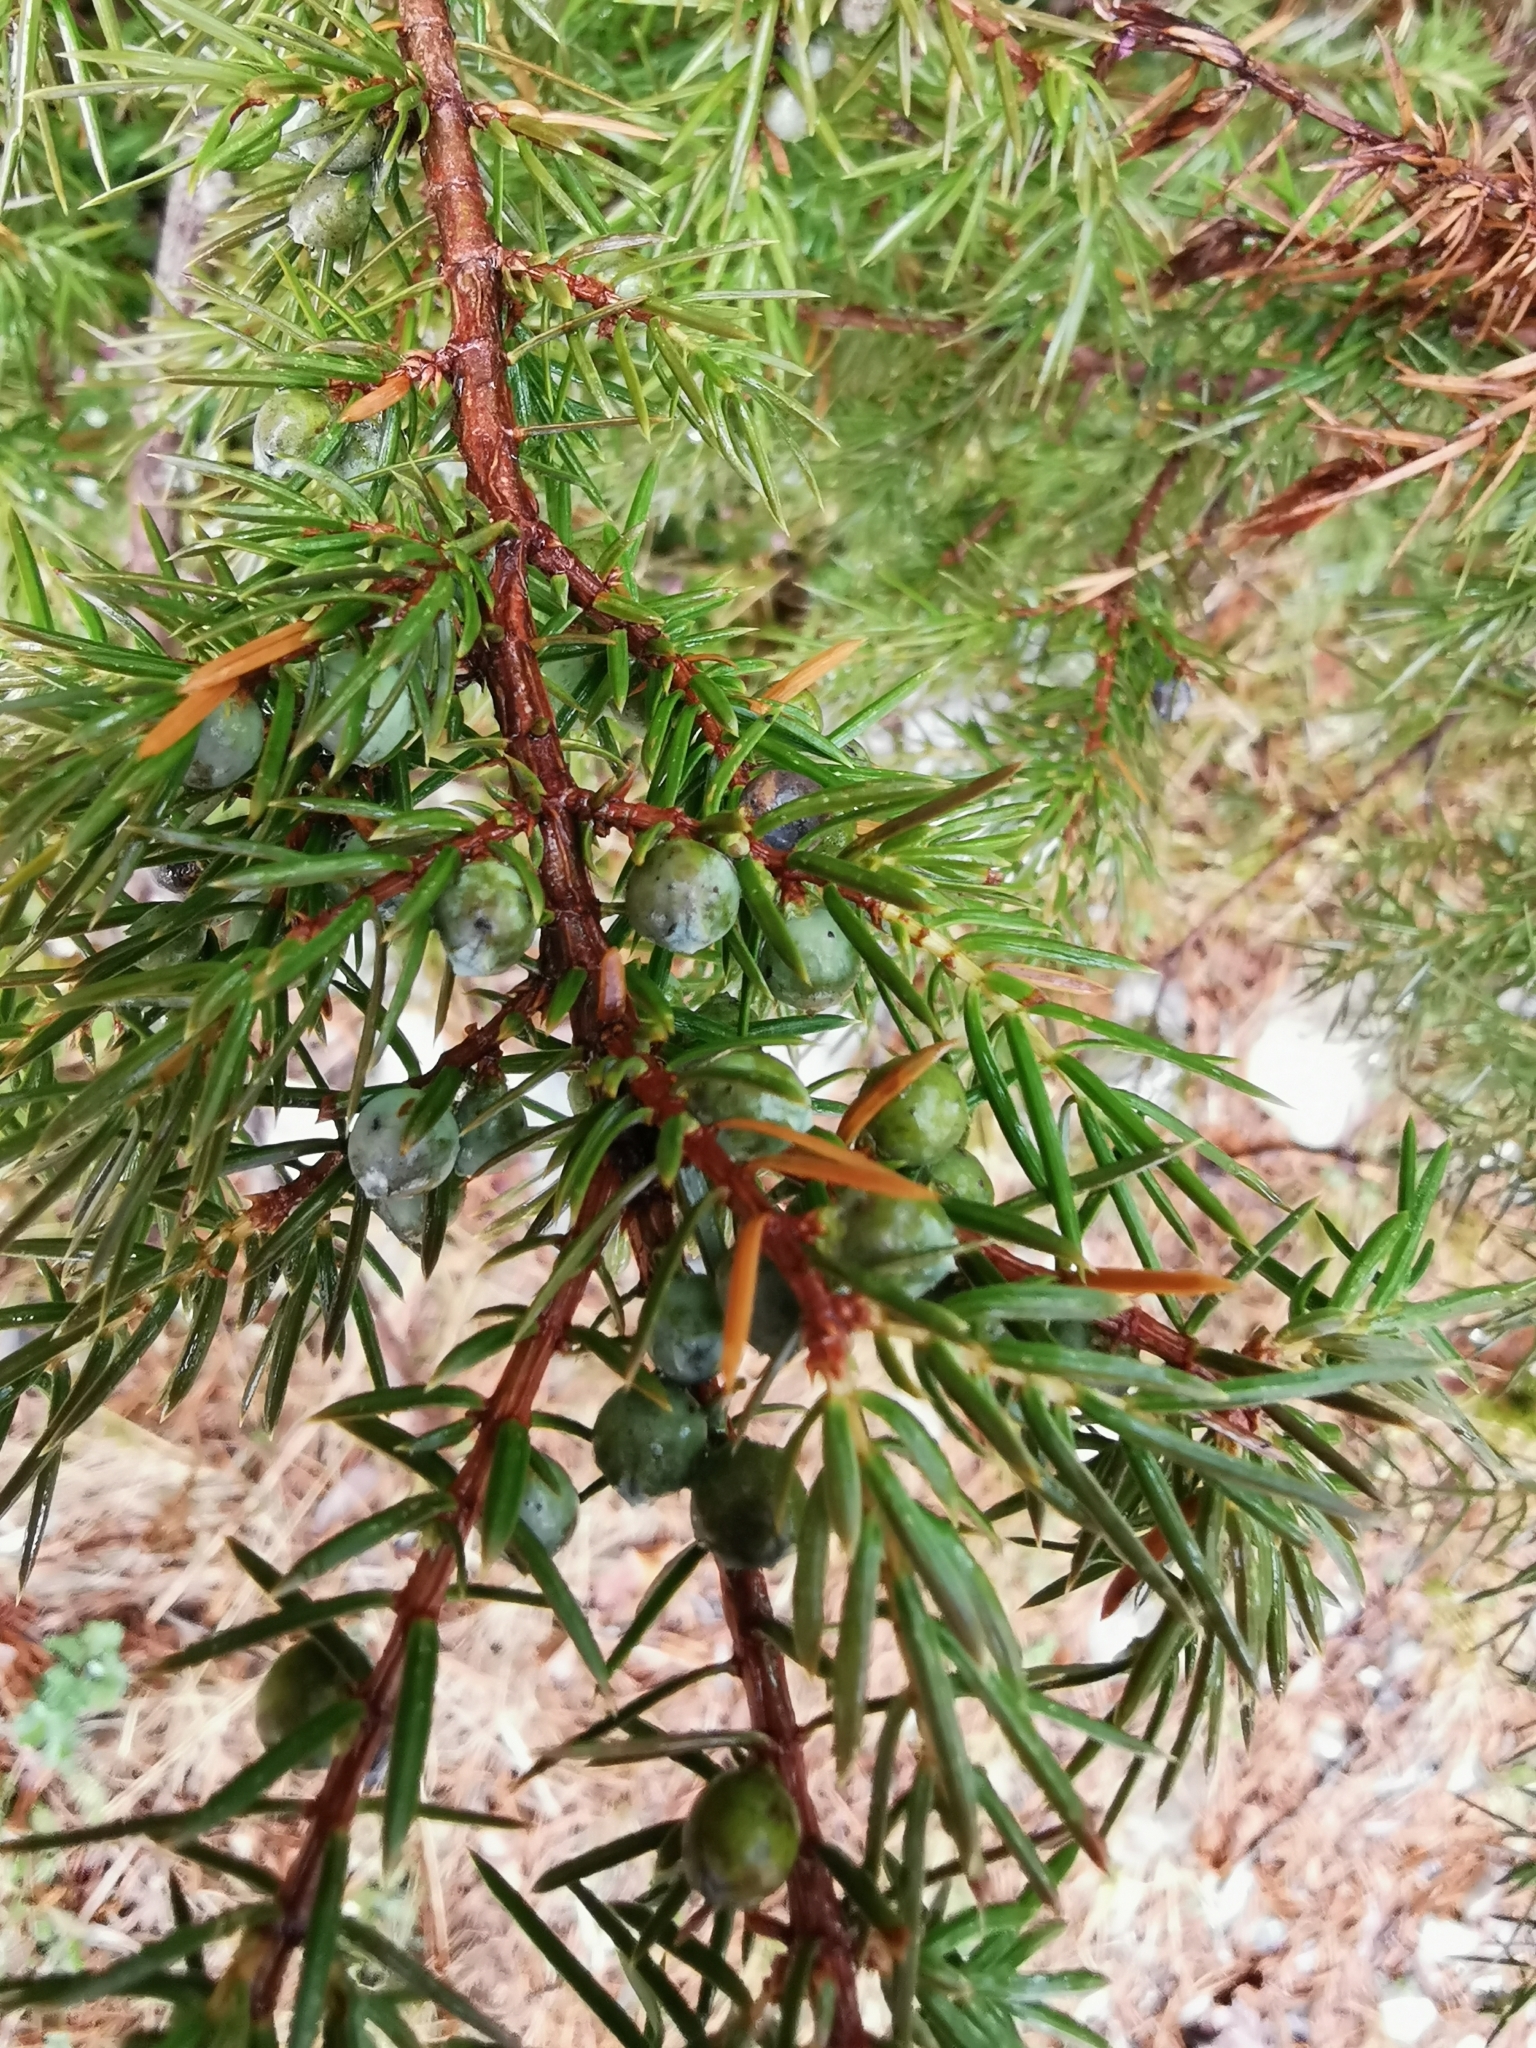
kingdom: Plantae
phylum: Tracheophyta
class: Pinopsida
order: Pinales
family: Cupressaceae
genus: Juniperus
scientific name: Juniperus communis
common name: Common juniper
